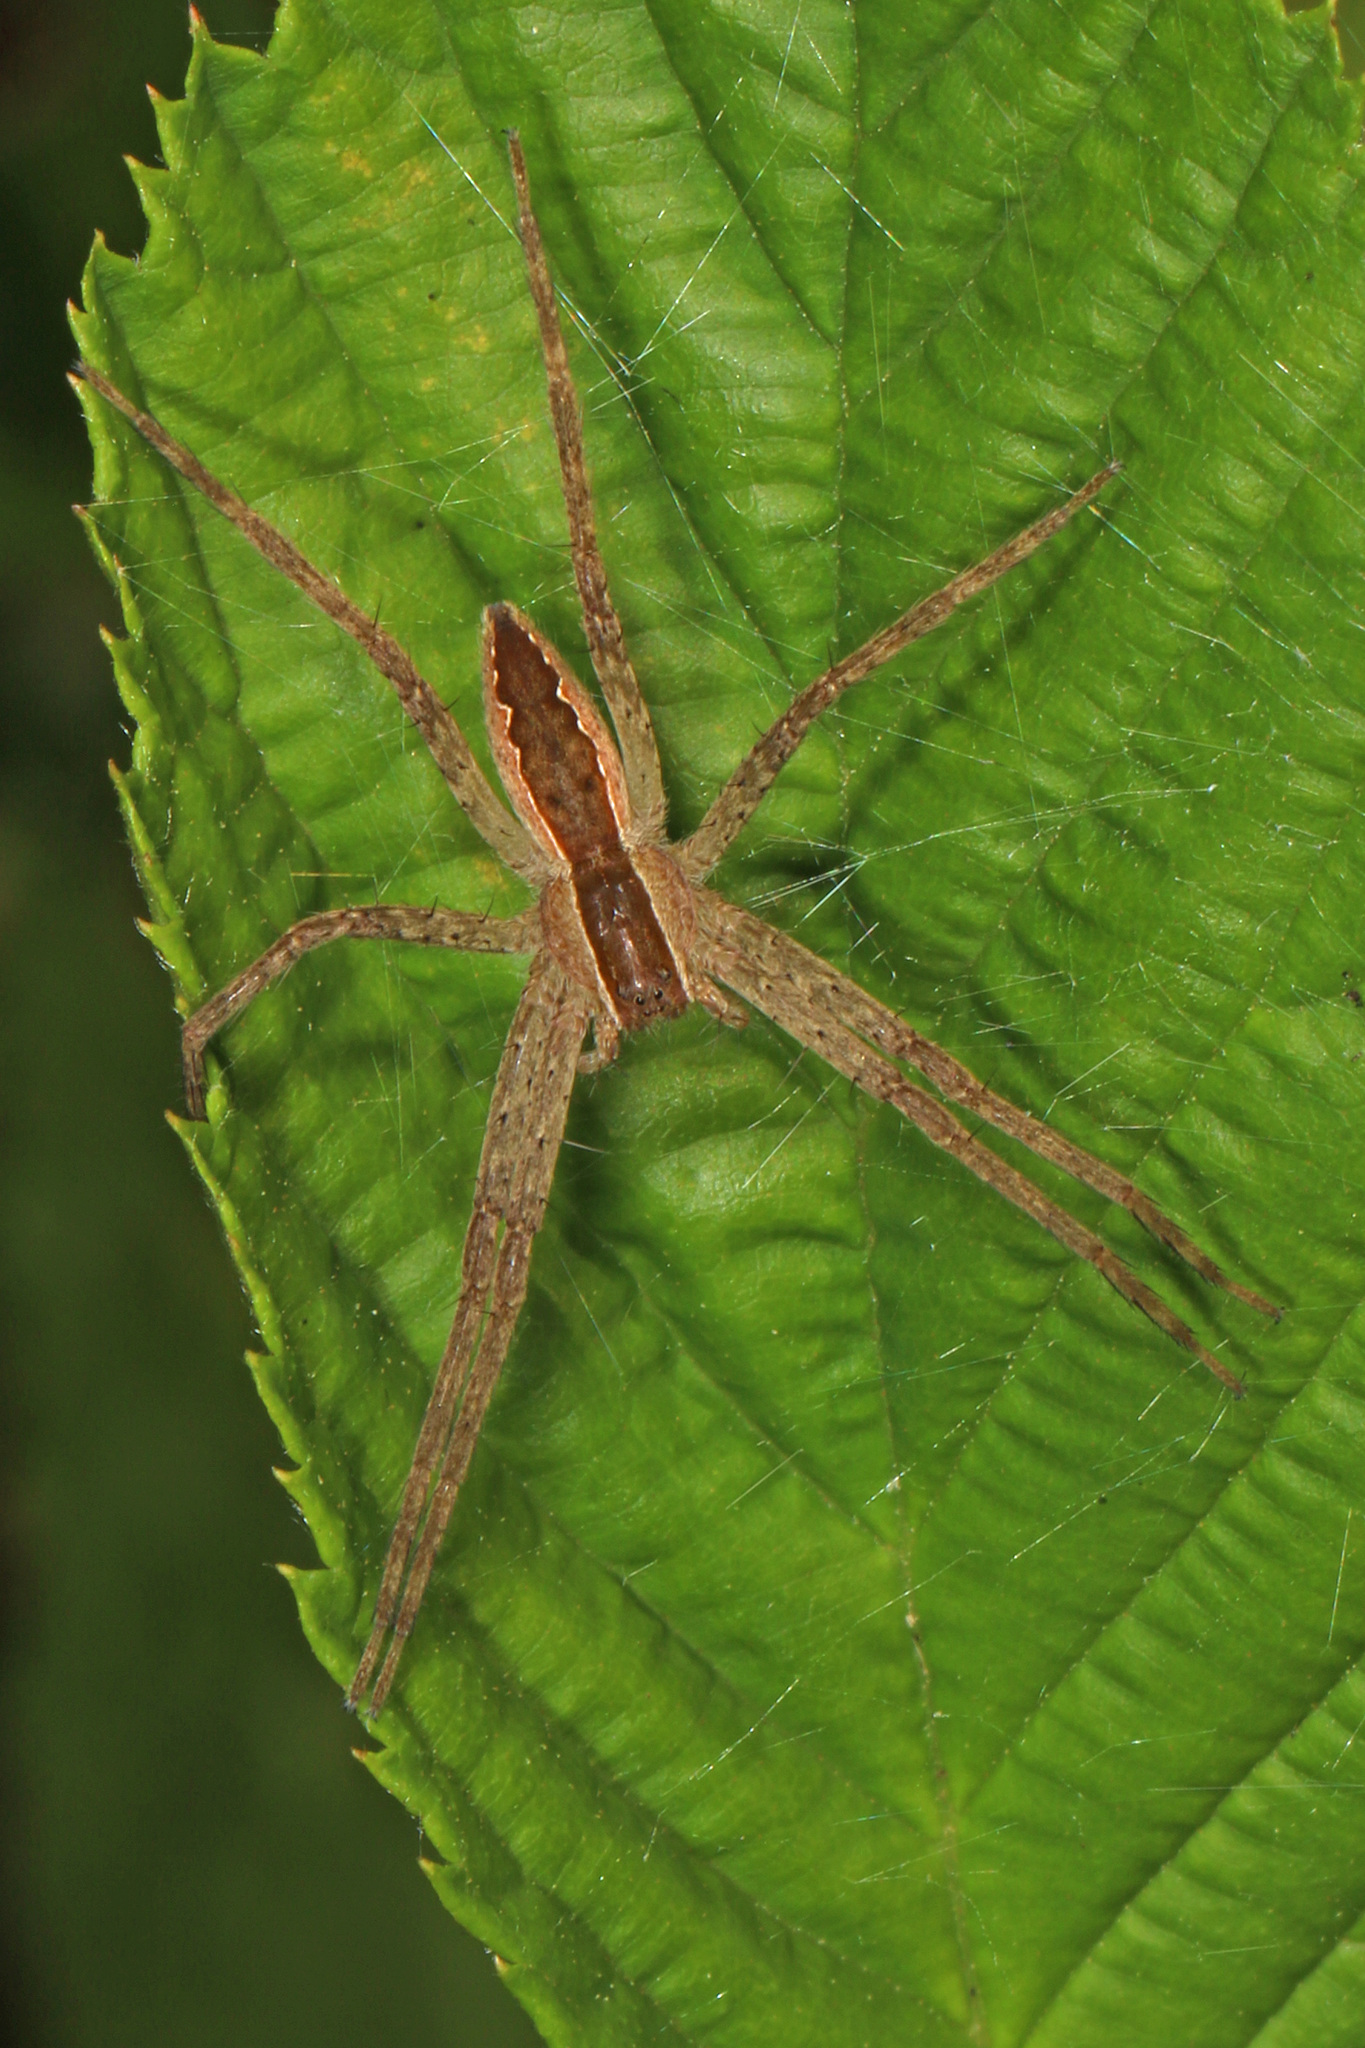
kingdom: Animalia
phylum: Arthropoda
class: Arachnida
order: Araneae
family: Pisauridae
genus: Pisaurina
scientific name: Pisaurina mira
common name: American nursery web spider
